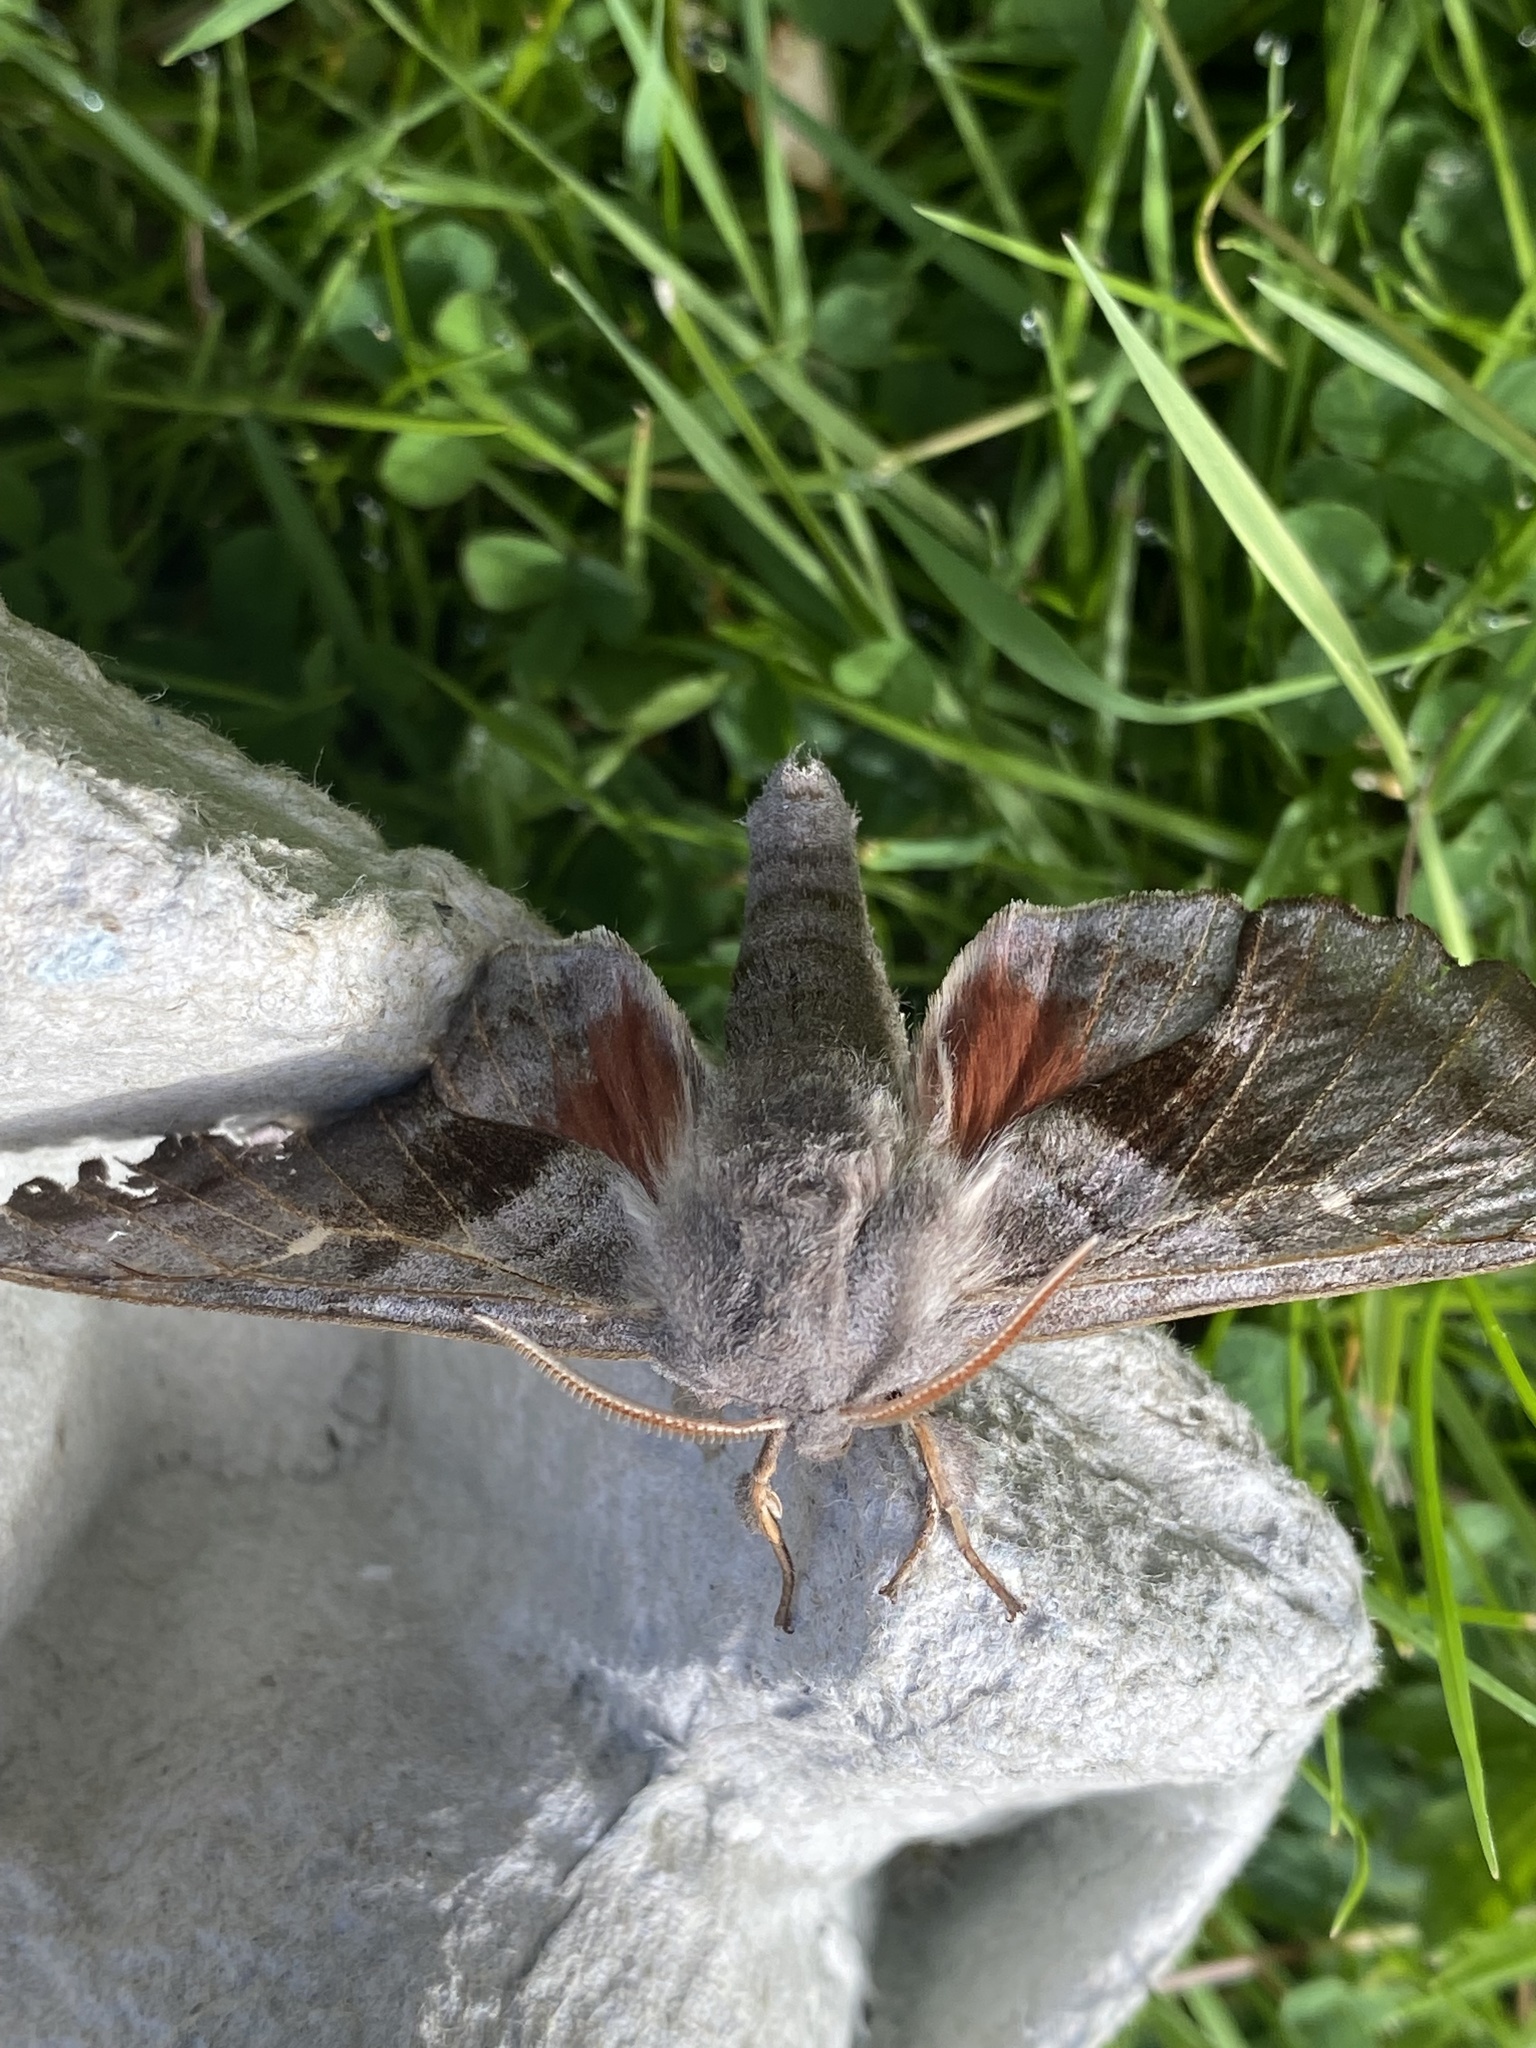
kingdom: Animalia
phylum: Arthropoda
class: Insecta
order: Lepidoptera
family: Sphingidae
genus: Laothoe
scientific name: Laothoe populi
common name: Poplar hawk-moth
